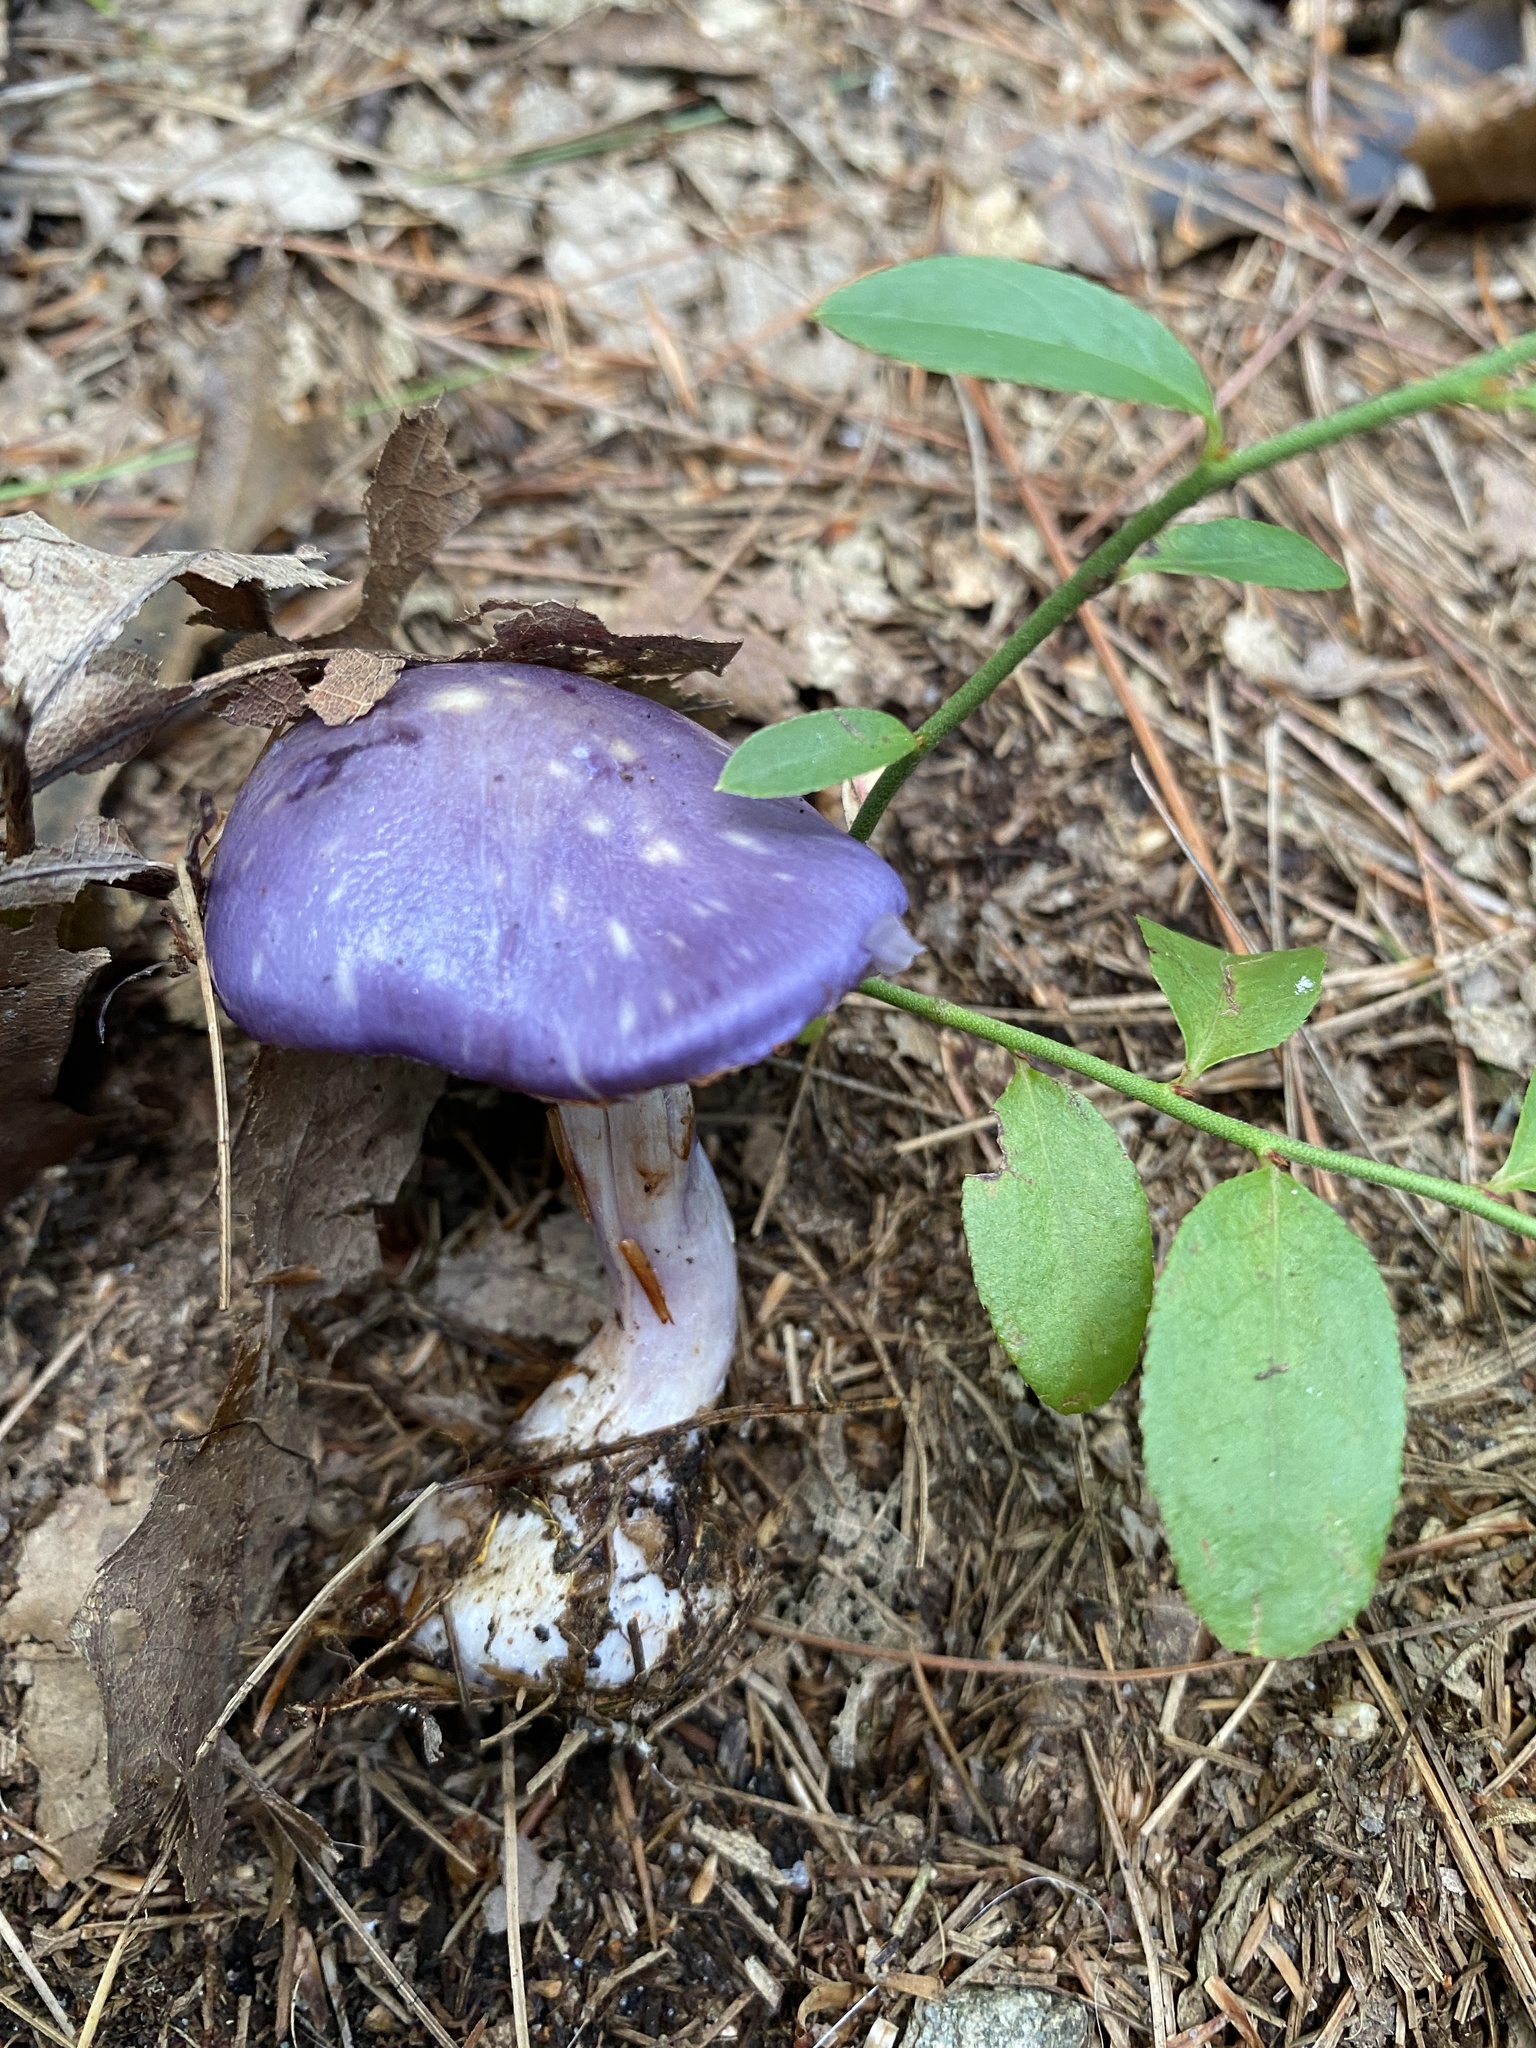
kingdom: Fungi
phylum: Basidiomycota
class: Agaricomycetes
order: Agaricales
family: Cortinariaceae
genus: Cortinarius
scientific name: Cortinarius iodes
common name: Viscid violet cort
